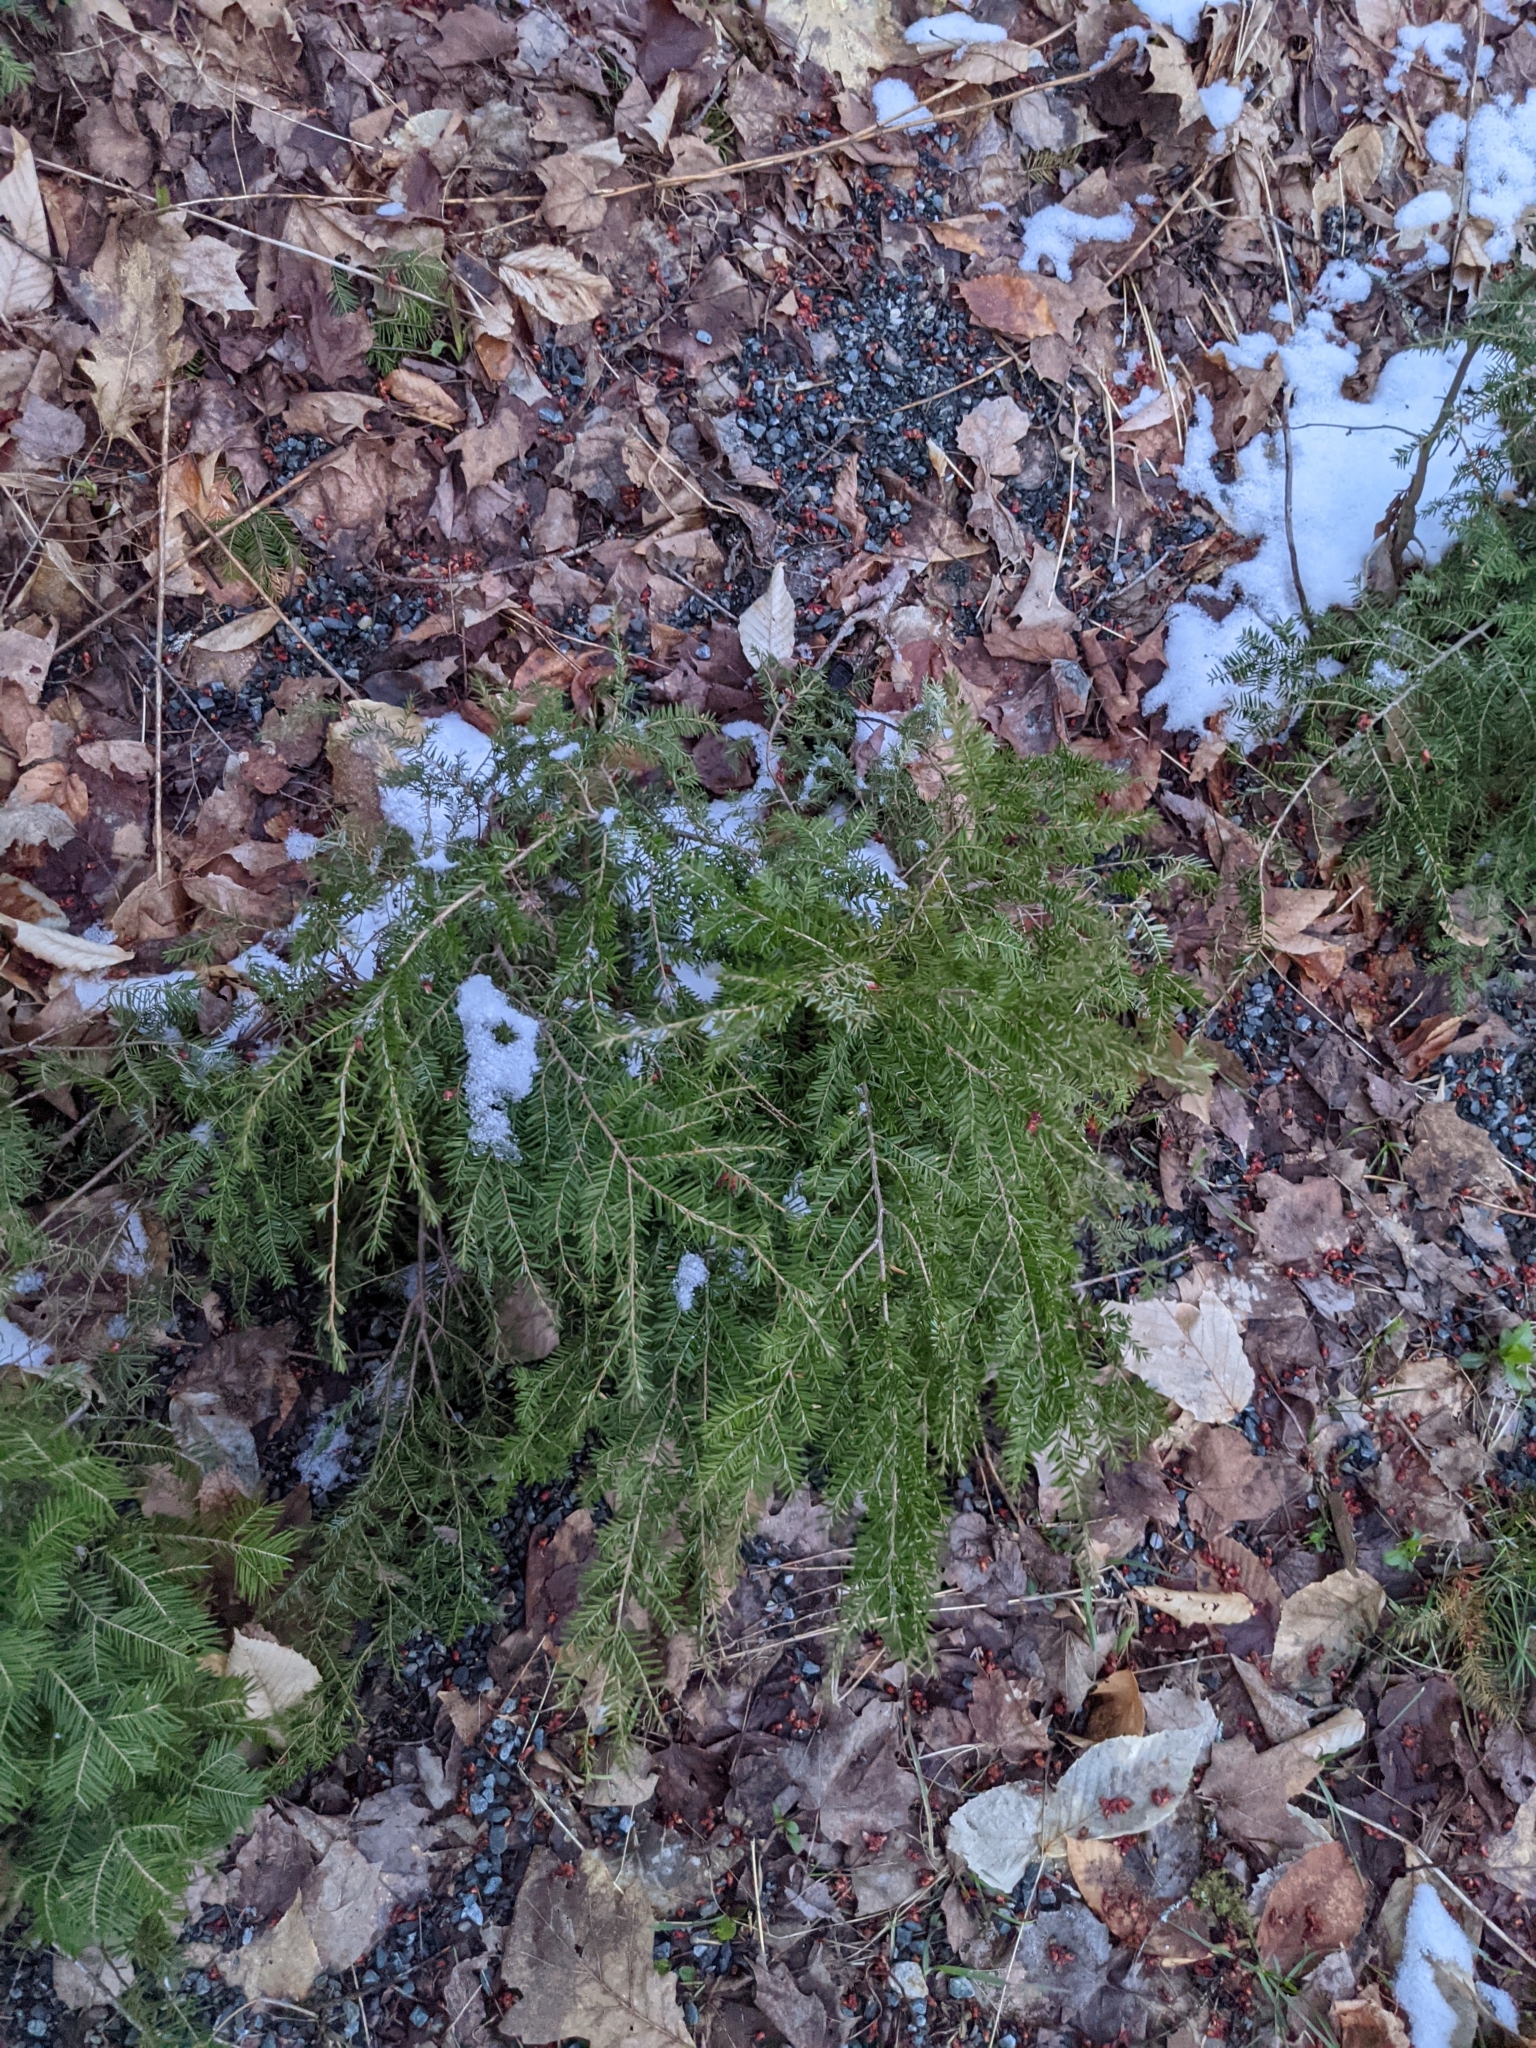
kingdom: Plantae
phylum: Tracheophyta
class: Pinopsida
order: Pinales
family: Pinaceae
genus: Tsuga
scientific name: Tsuga canadensis
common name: Eastern hemlock
